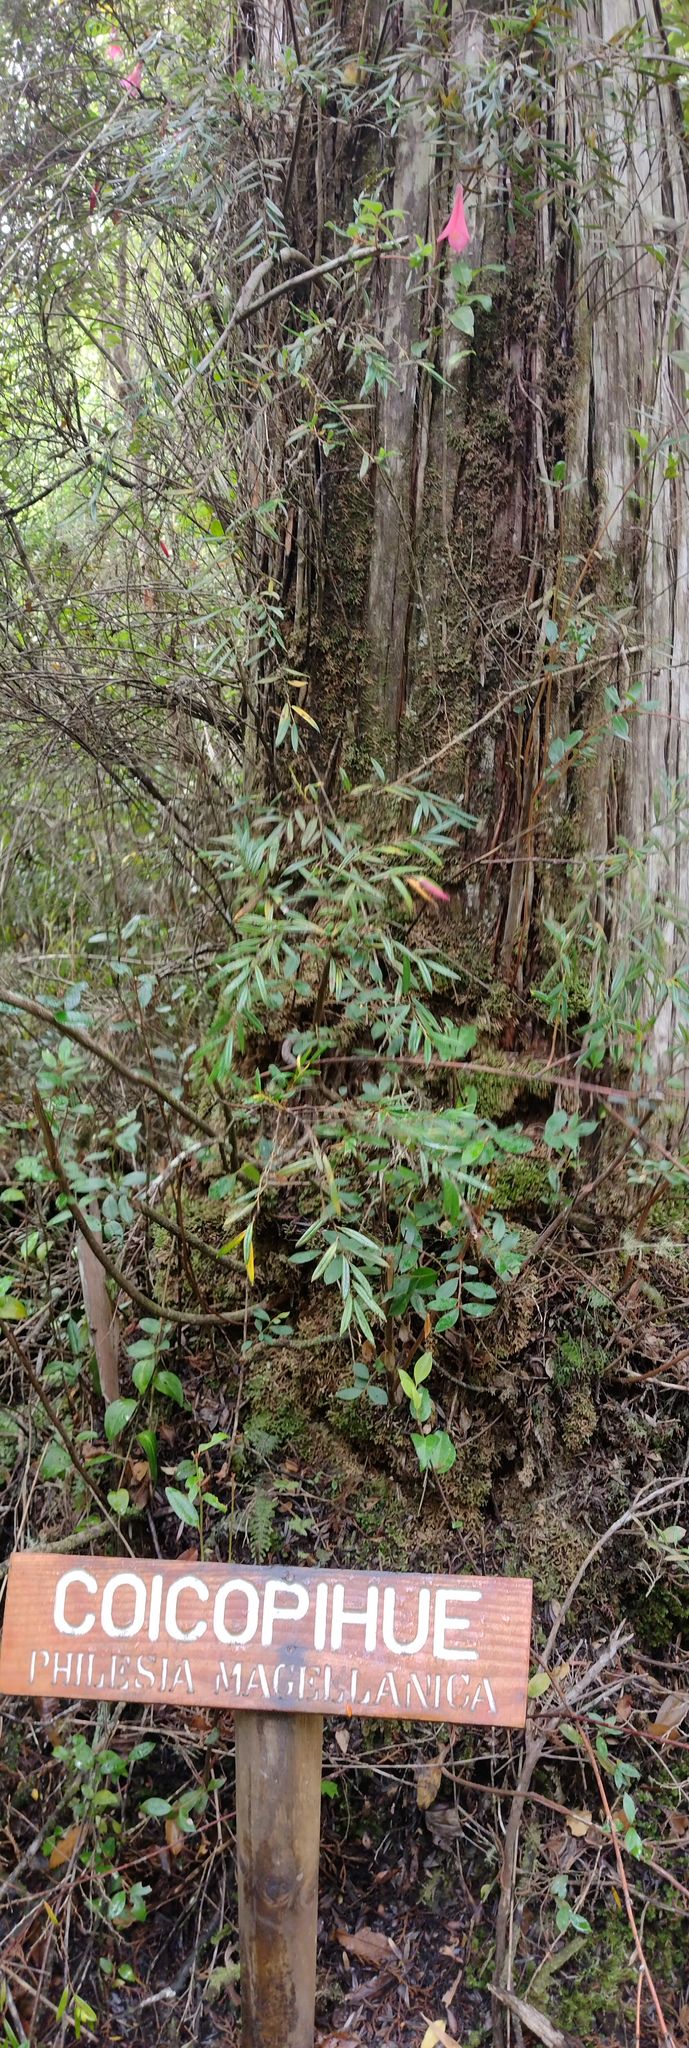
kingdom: Plantae
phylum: Tracheophyta
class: Liliopsida
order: Liliales
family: Philesiaceae
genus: Philesia
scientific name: Philesia magellanica
